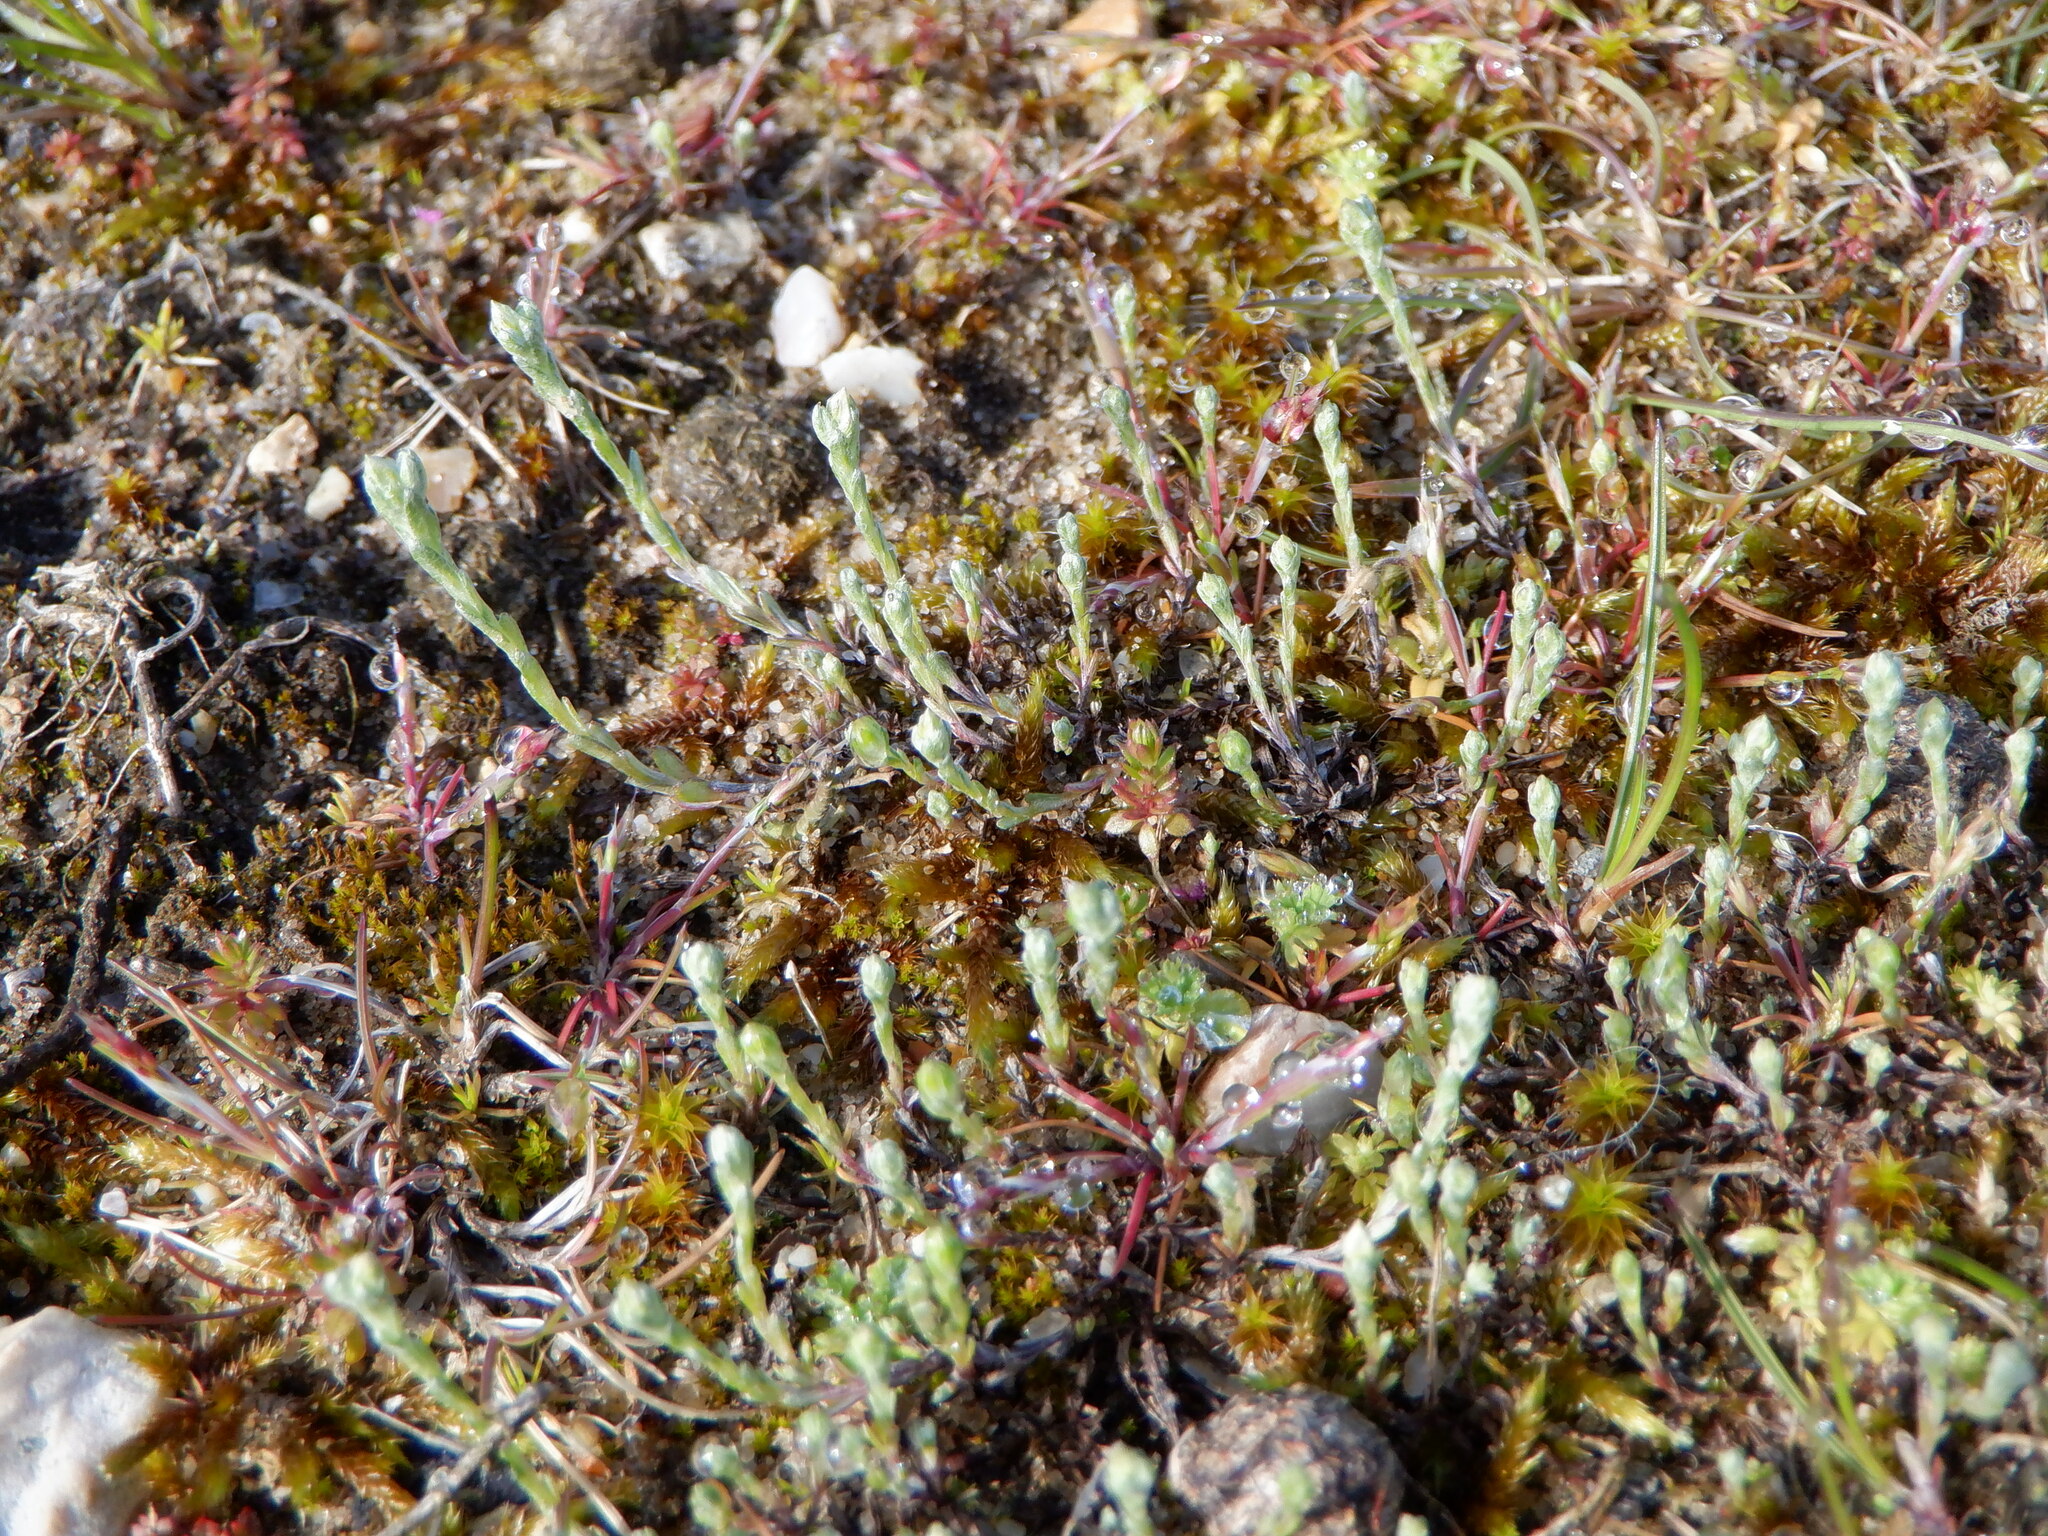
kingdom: Plantae
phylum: Tracheophyta
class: Magnoliopsida
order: Asterales
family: Asteraceae
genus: Logfia
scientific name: Logfia minima
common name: Little cottonrose
